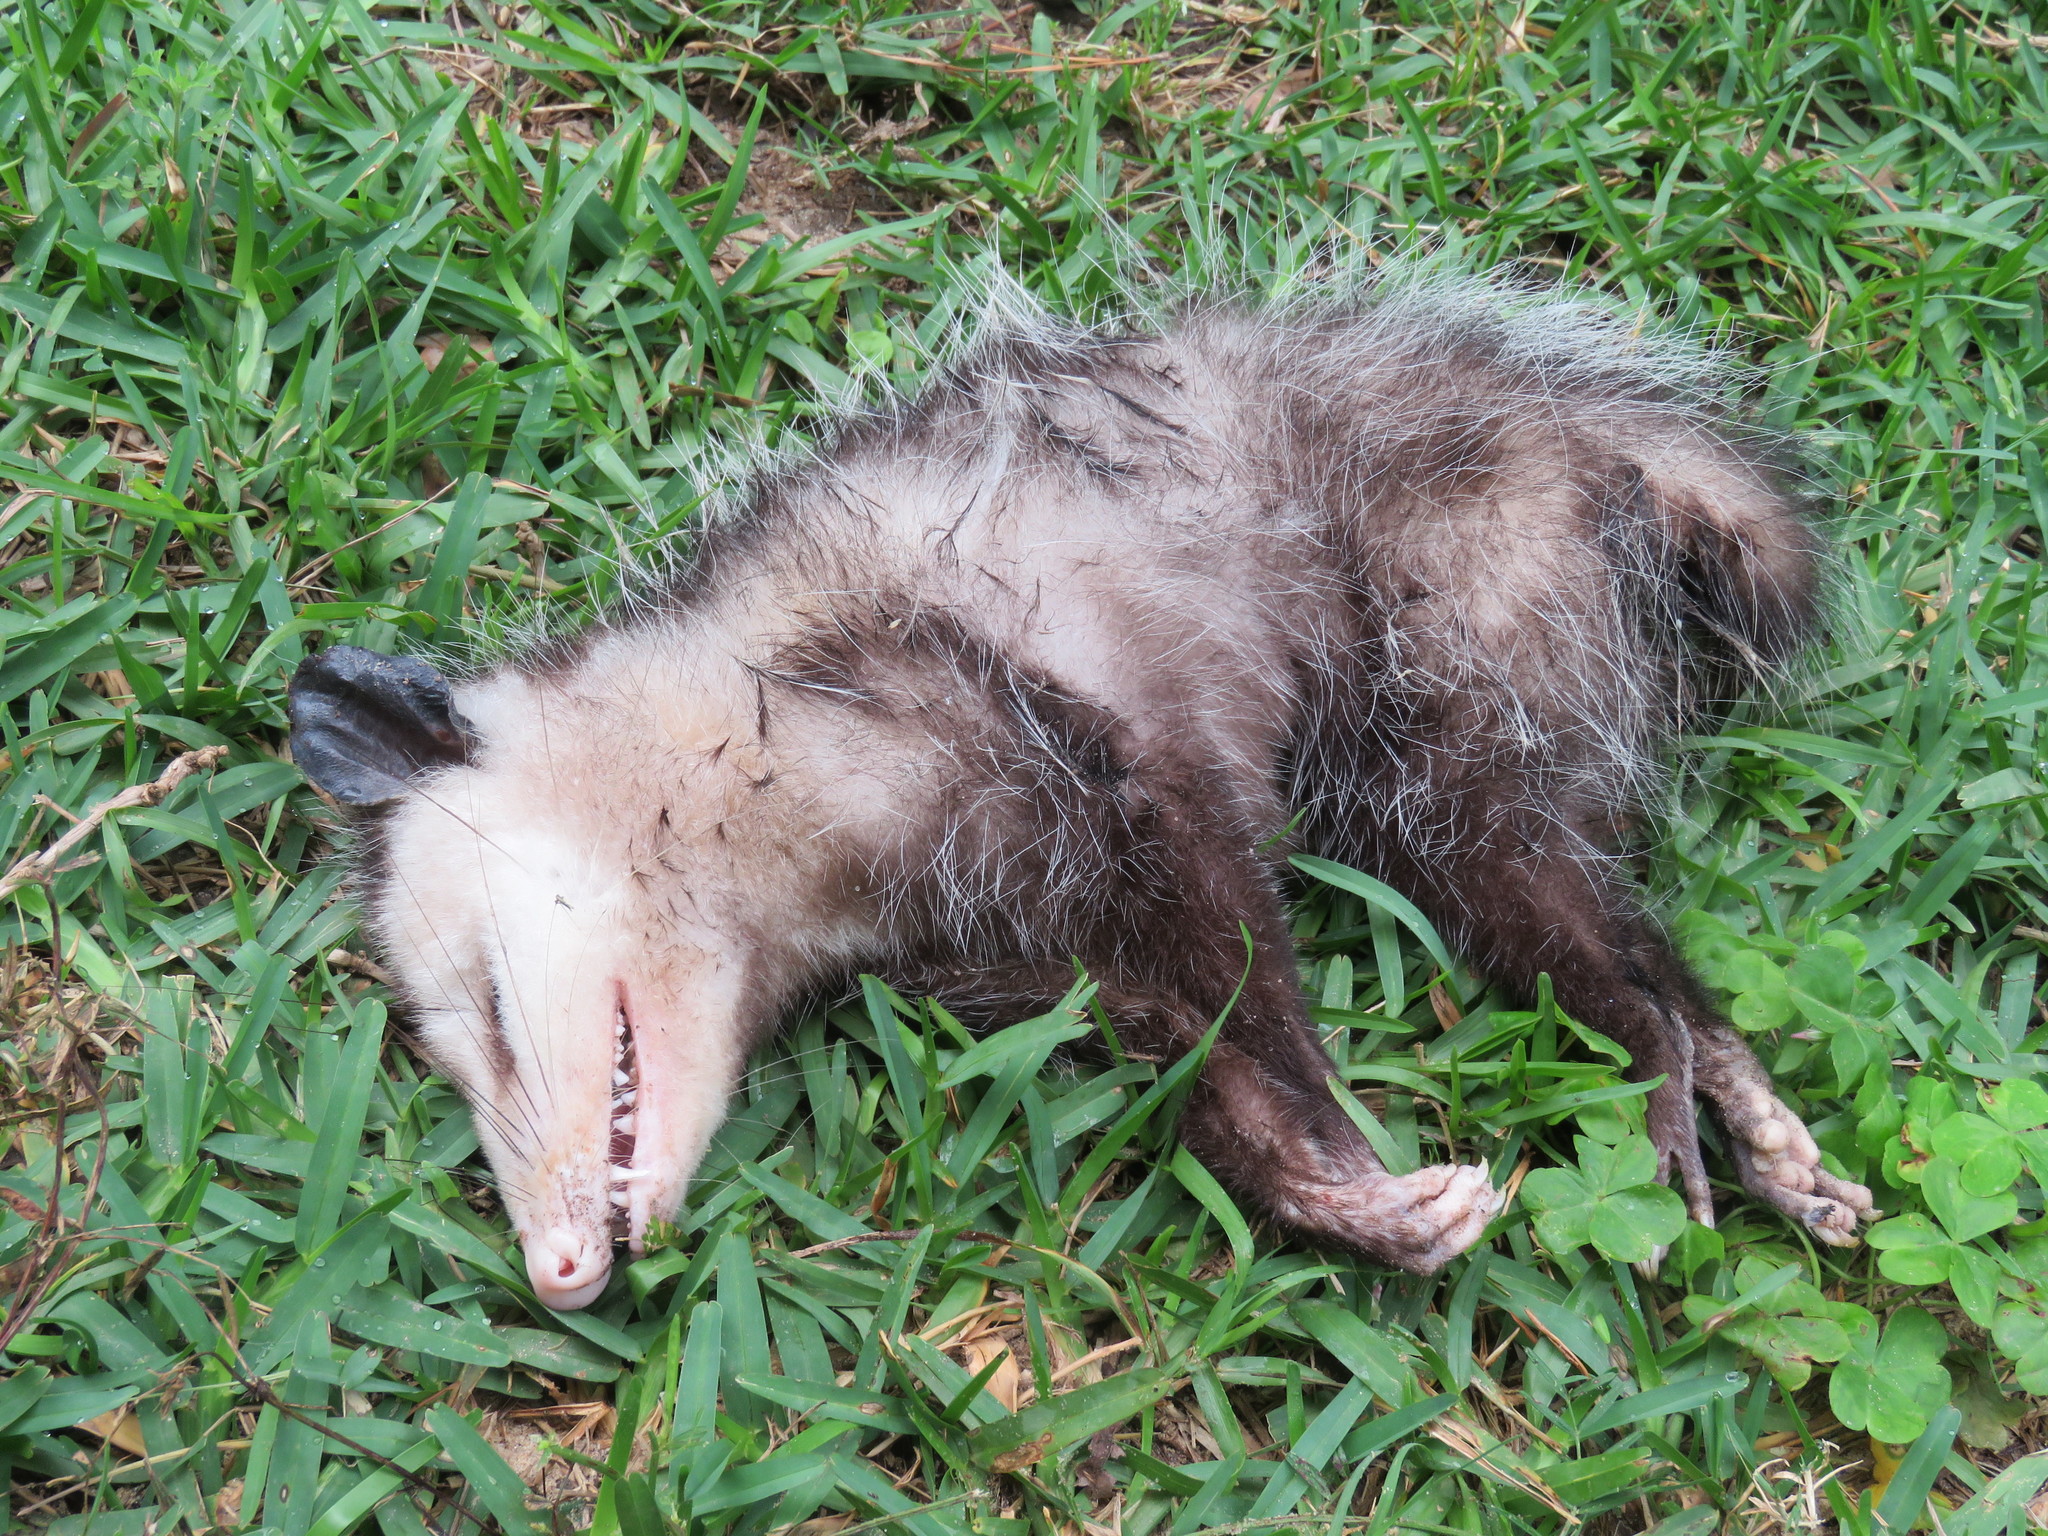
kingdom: Animalia
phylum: Chordata
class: Mammalia
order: Didelphimorphia
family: Didelphidae
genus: Didelphis
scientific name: Didelphis virginiana
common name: Virginia opossum
